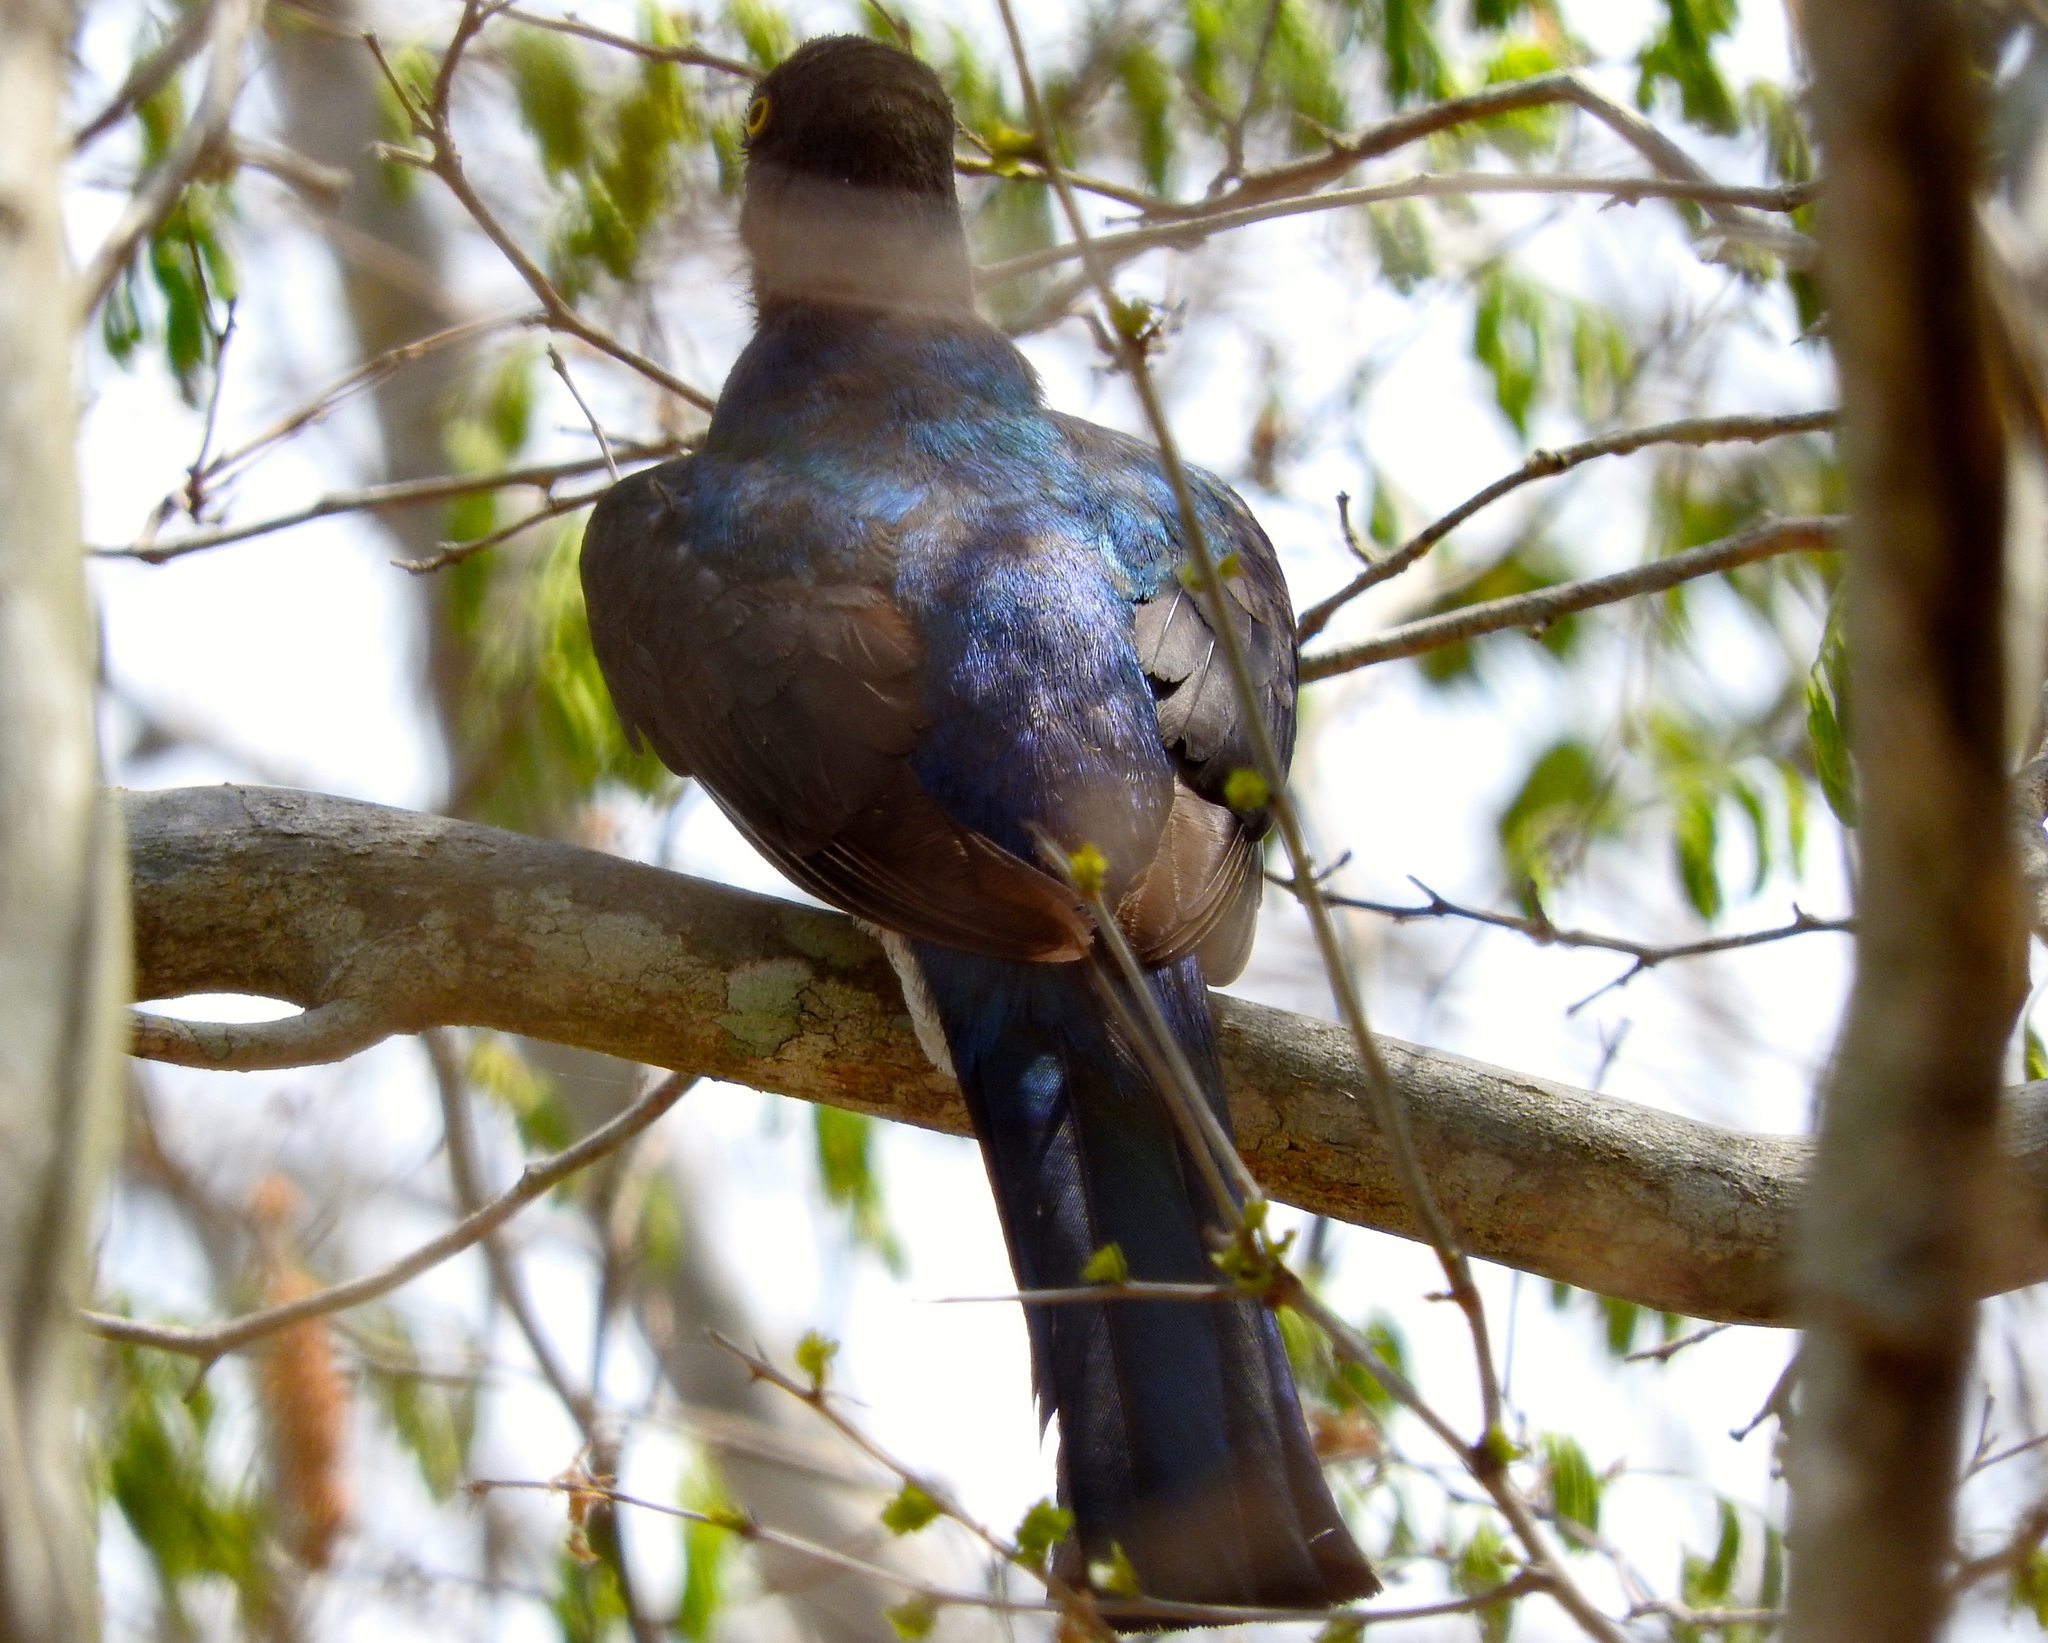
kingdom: Animalia
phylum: Chordata
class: Aves
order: Trogoniformes
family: Trogonidae
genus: Trogon
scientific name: Trogon citreolus
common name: Citreoline trogon
